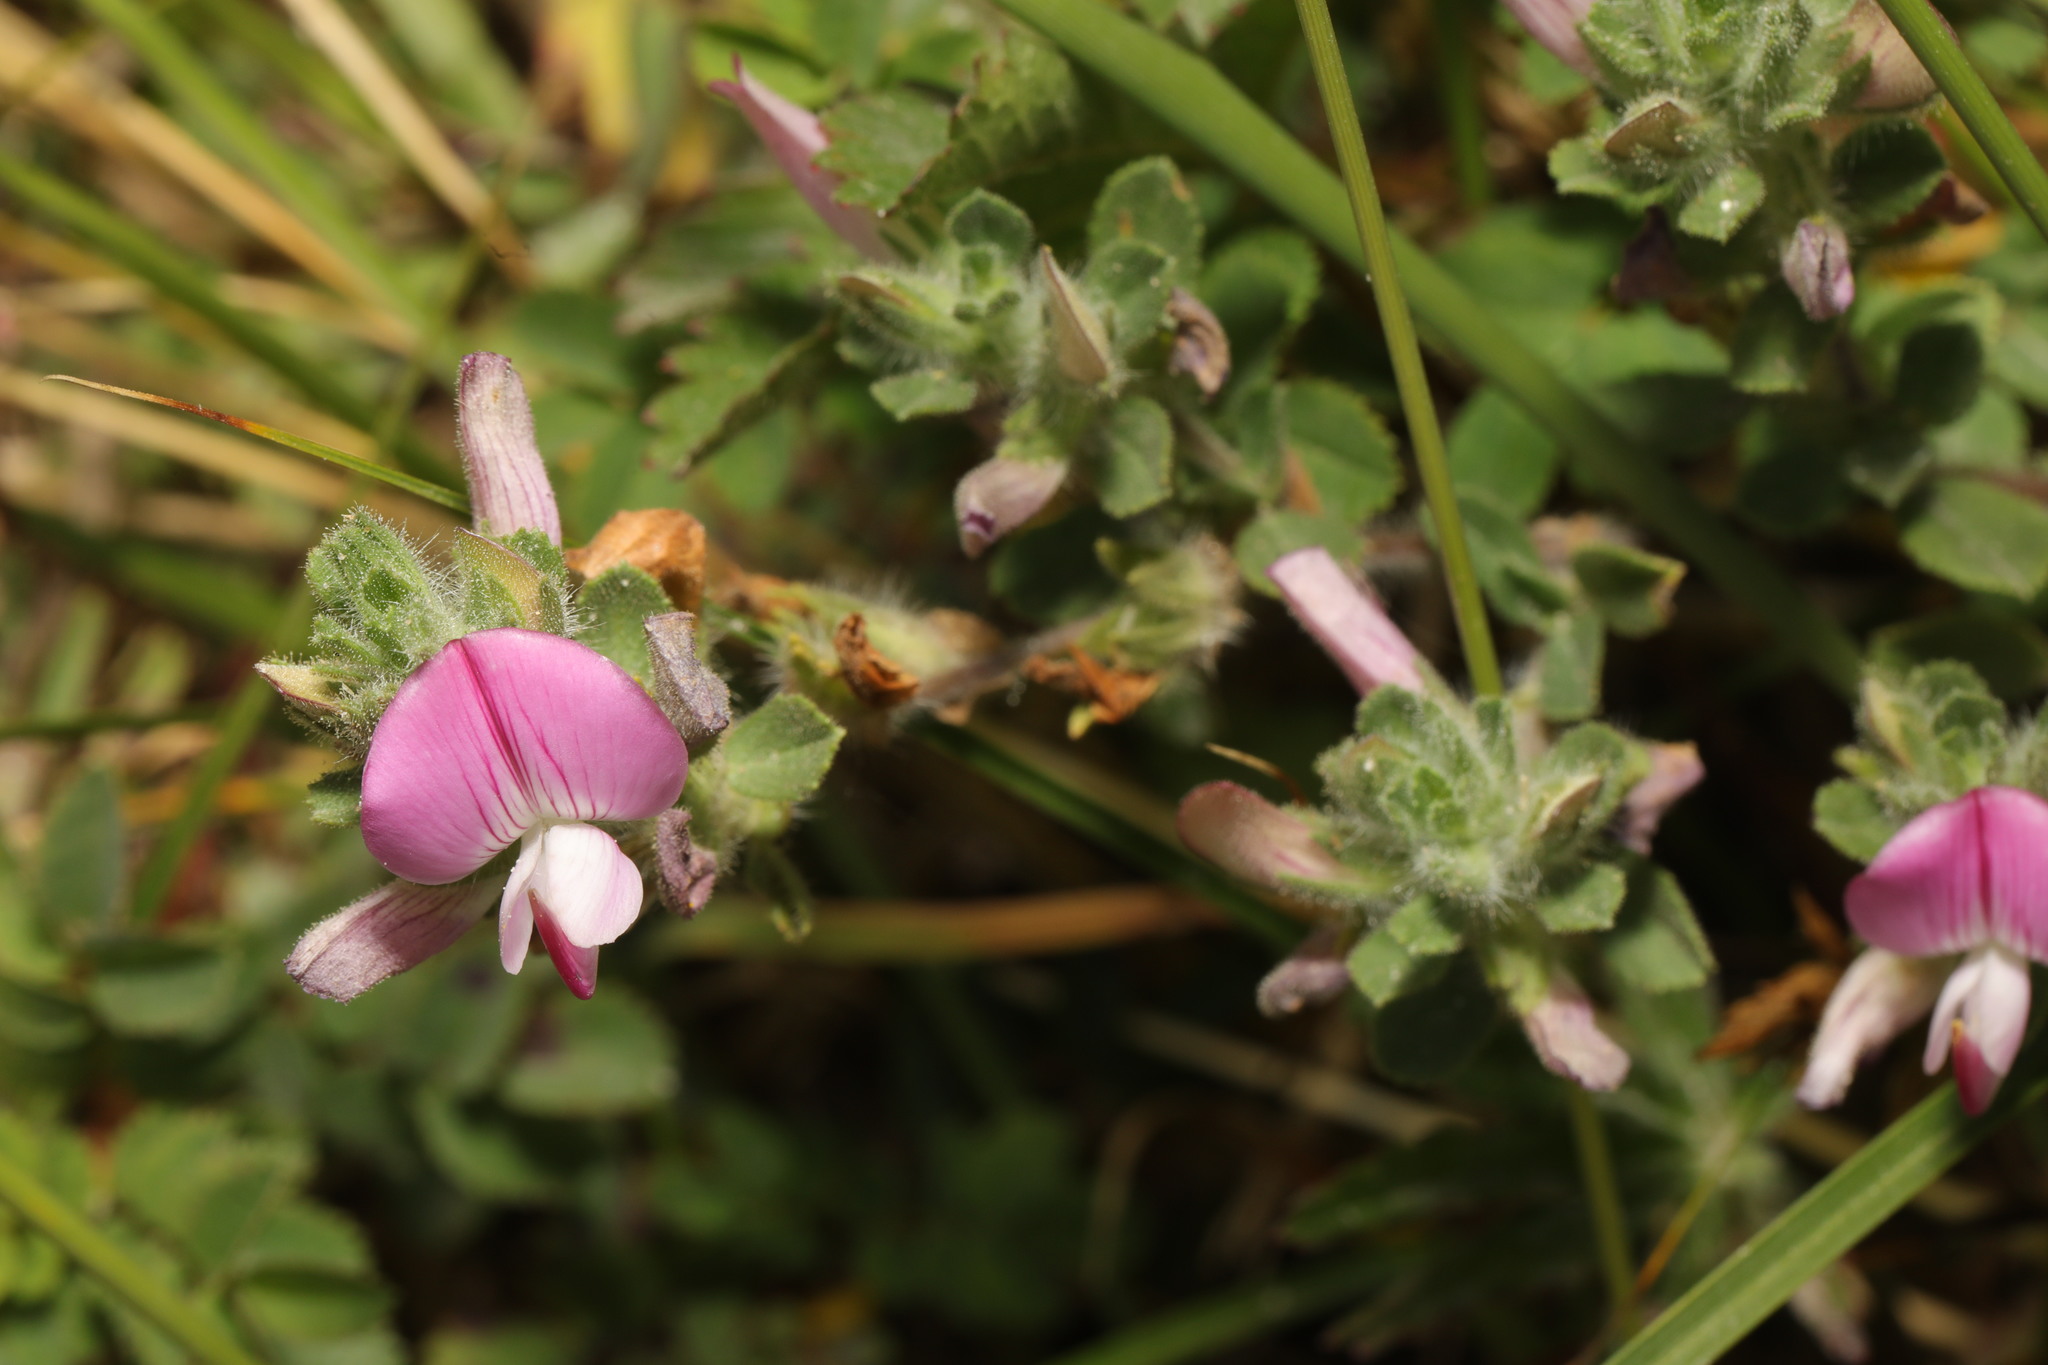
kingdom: Plantae
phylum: Tracheophyta
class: Magnoliopsida
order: Fabales
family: Fabaceae
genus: Ononis
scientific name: Ononis spinosa
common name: Spiny restharrow
